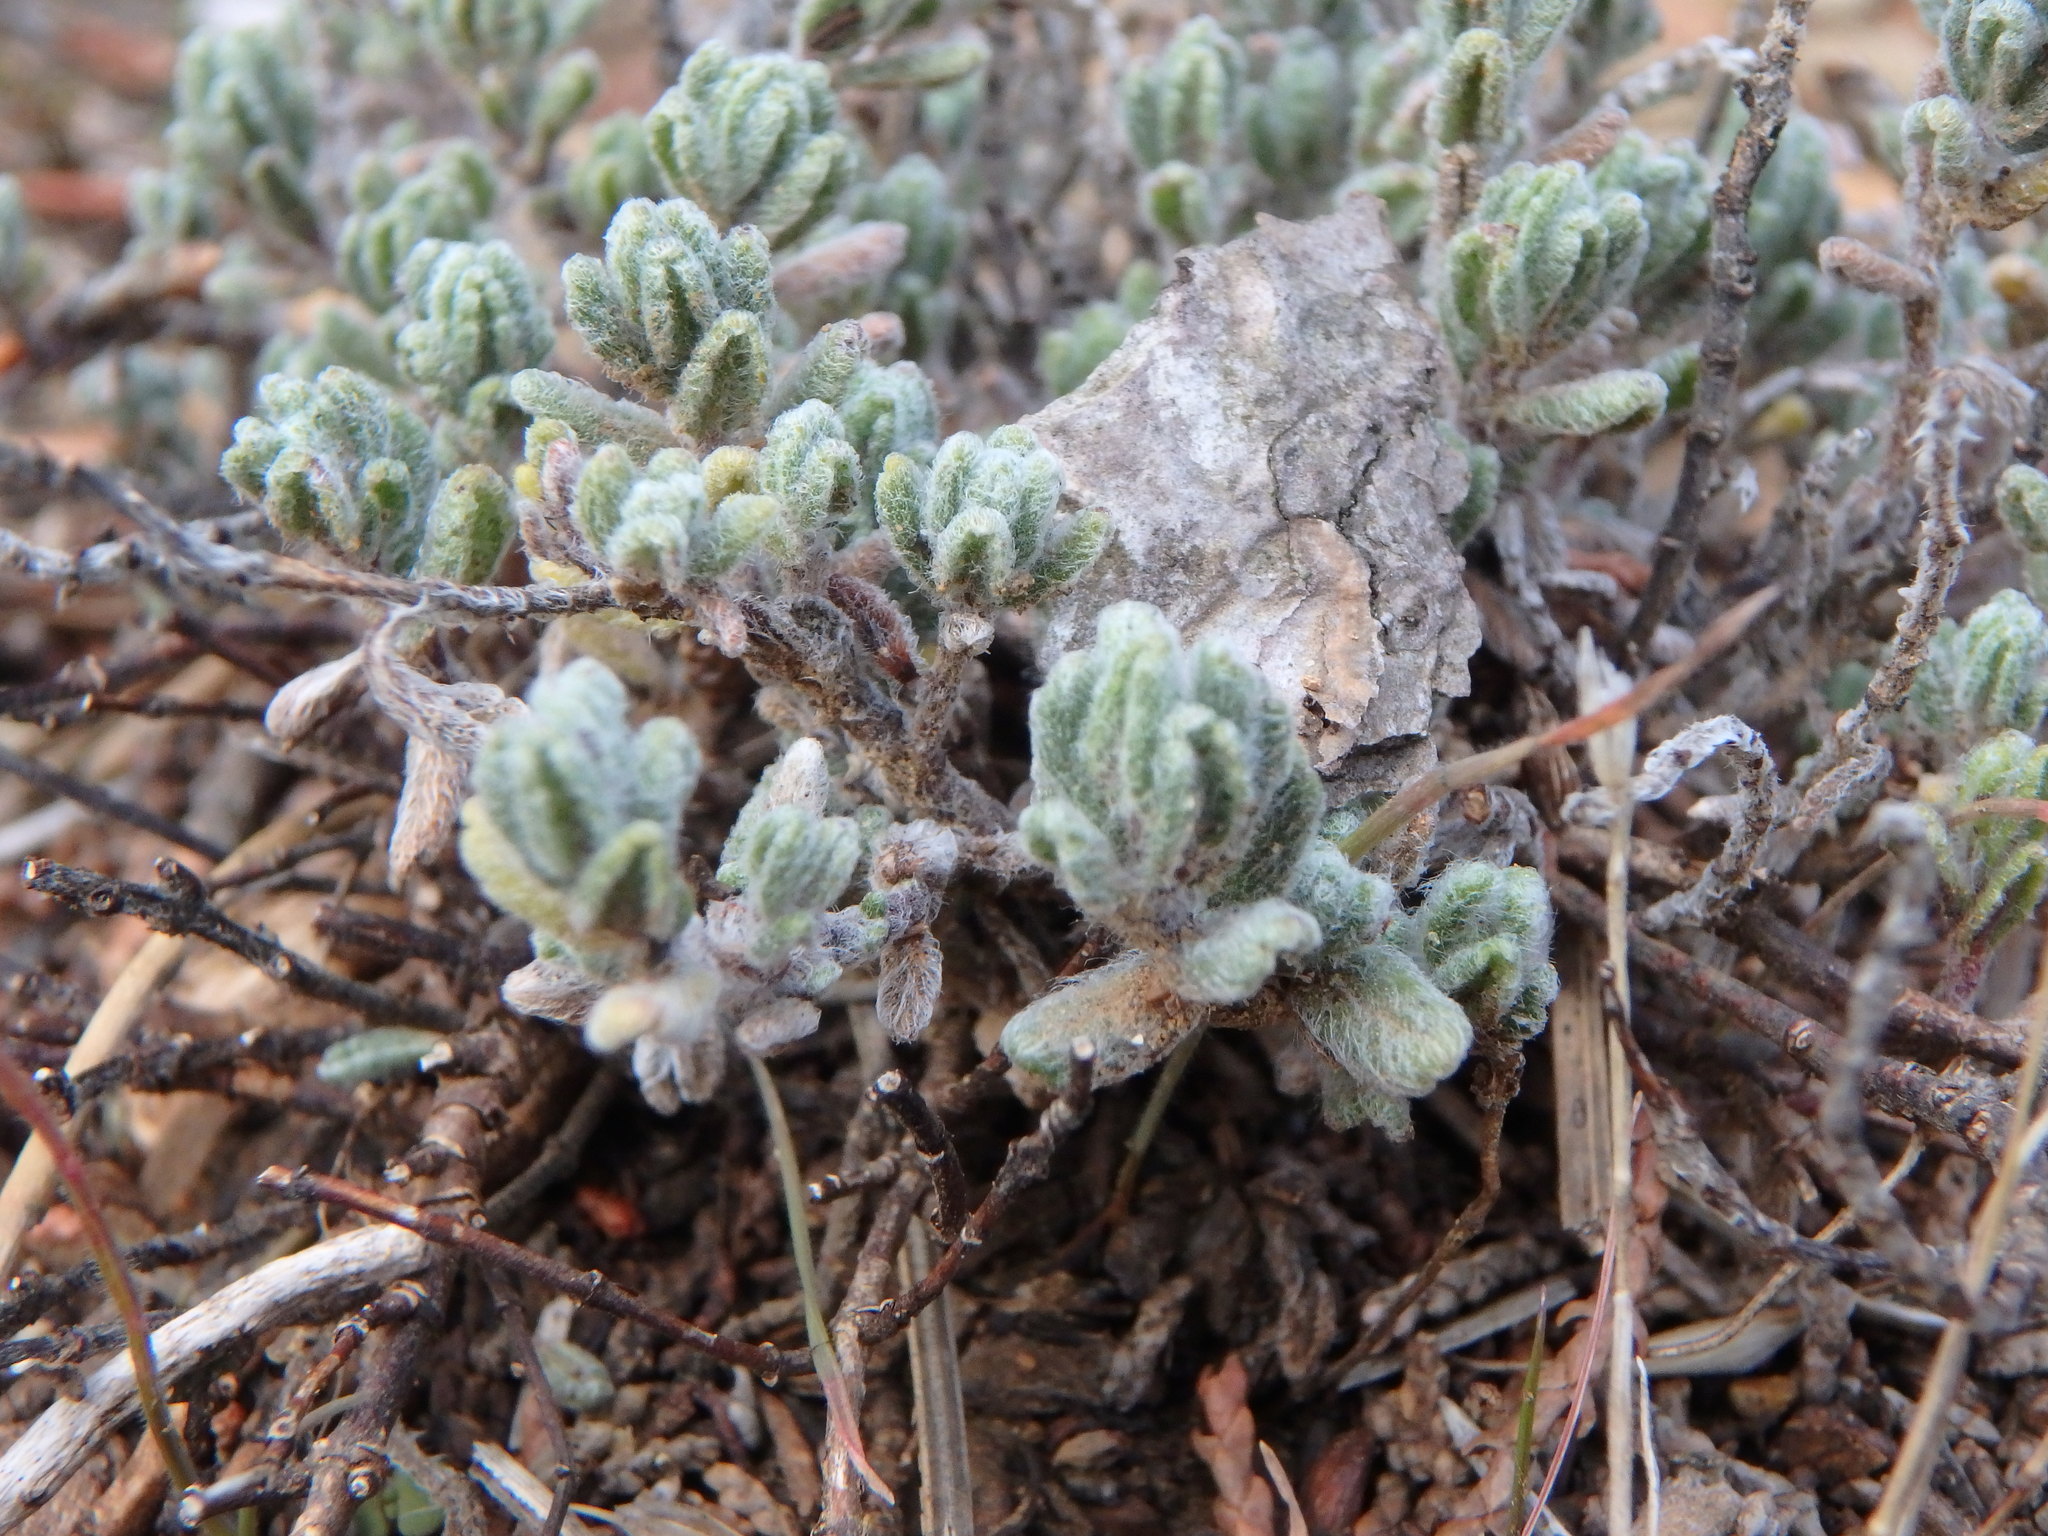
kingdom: Plantae
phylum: Tracheophyta
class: Magnoliopsida
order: Lamiales
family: Lamiaceae
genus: Teucrium
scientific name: Teucrium cyprium
